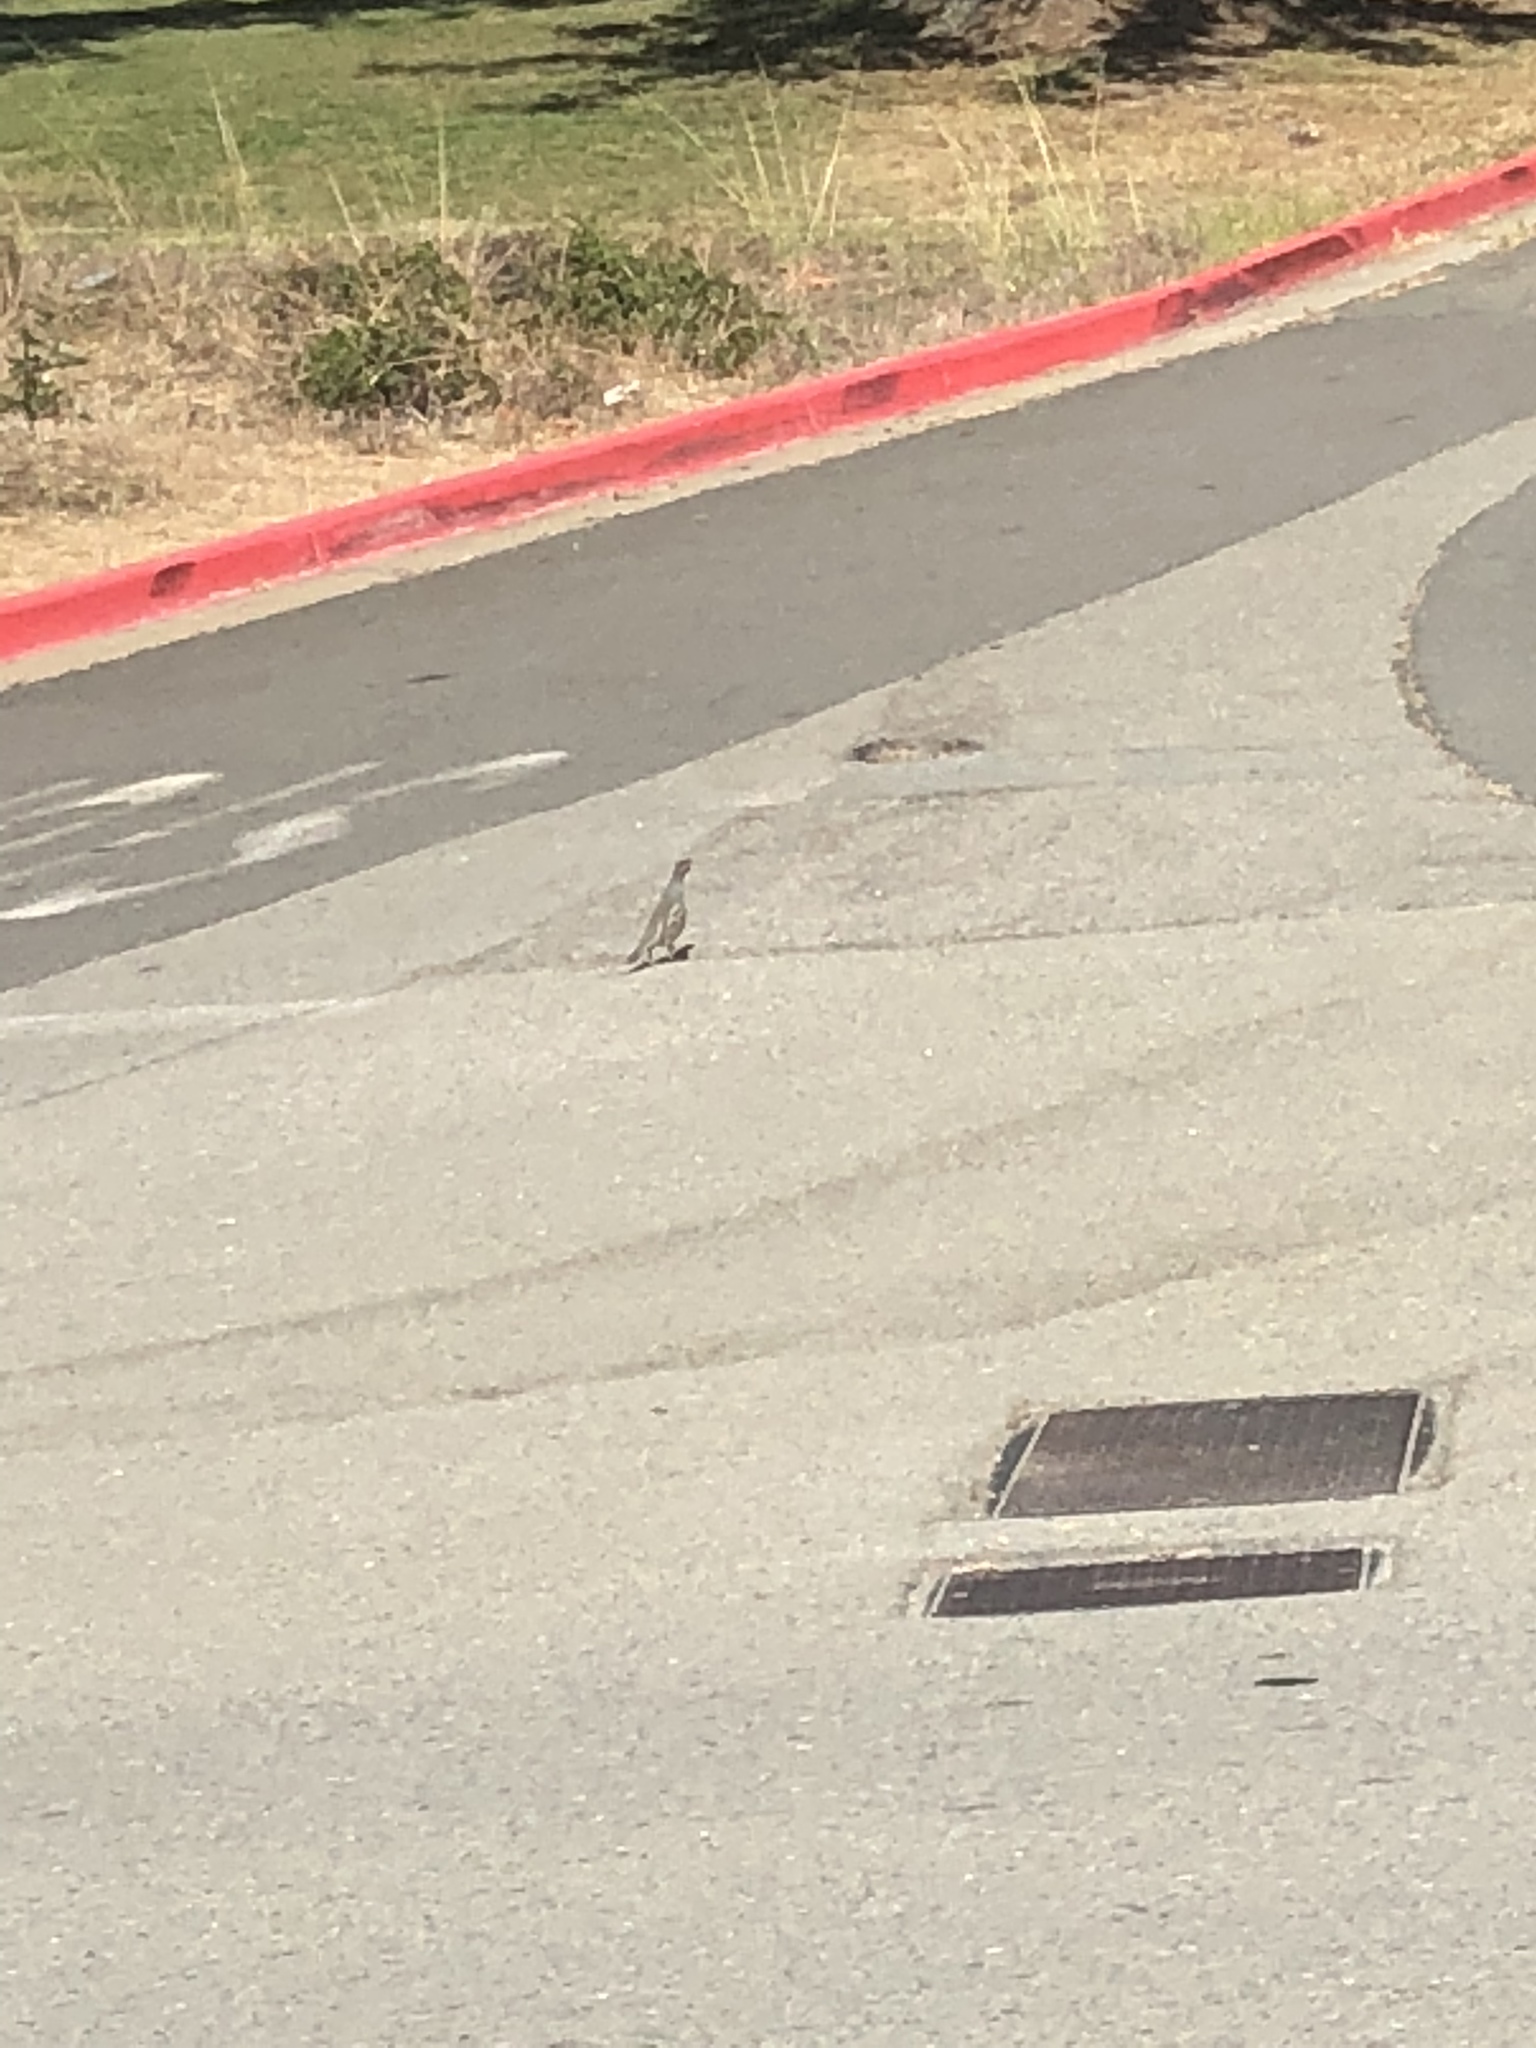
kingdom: Animalia
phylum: Chordata
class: Aves
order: Galliformes
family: Odontophoridae
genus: Callipepla
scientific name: Callipepla californica
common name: California quail
